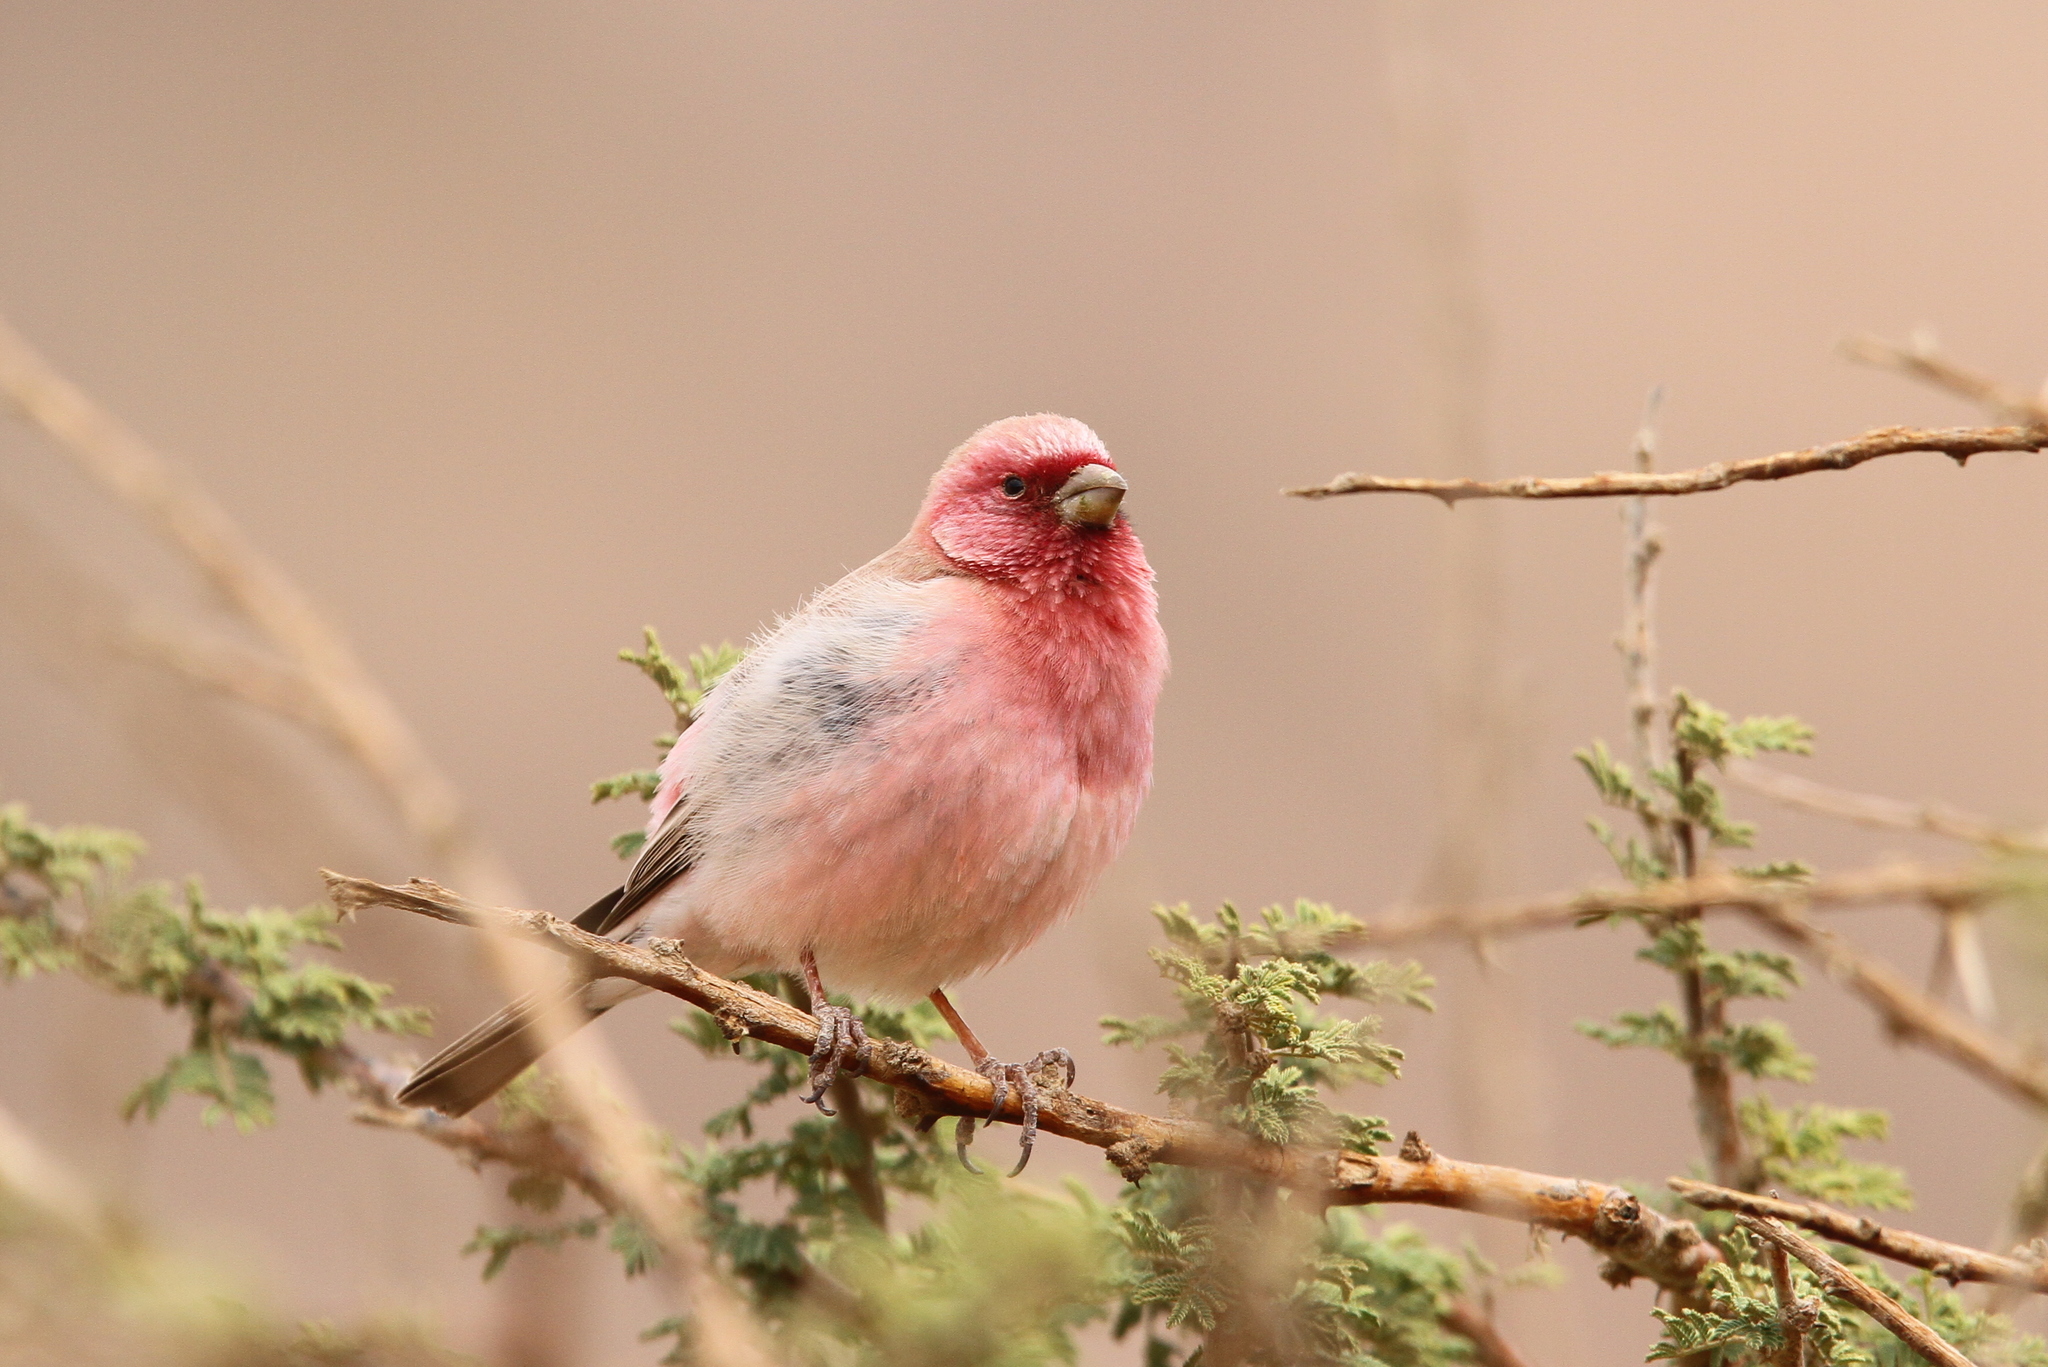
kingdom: Animalia
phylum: Chordata
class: Aves
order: Passeriformes
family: Fringillidae
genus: Carpodacus
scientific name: Carpodacus synoicus
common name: Sinai rosefinch
